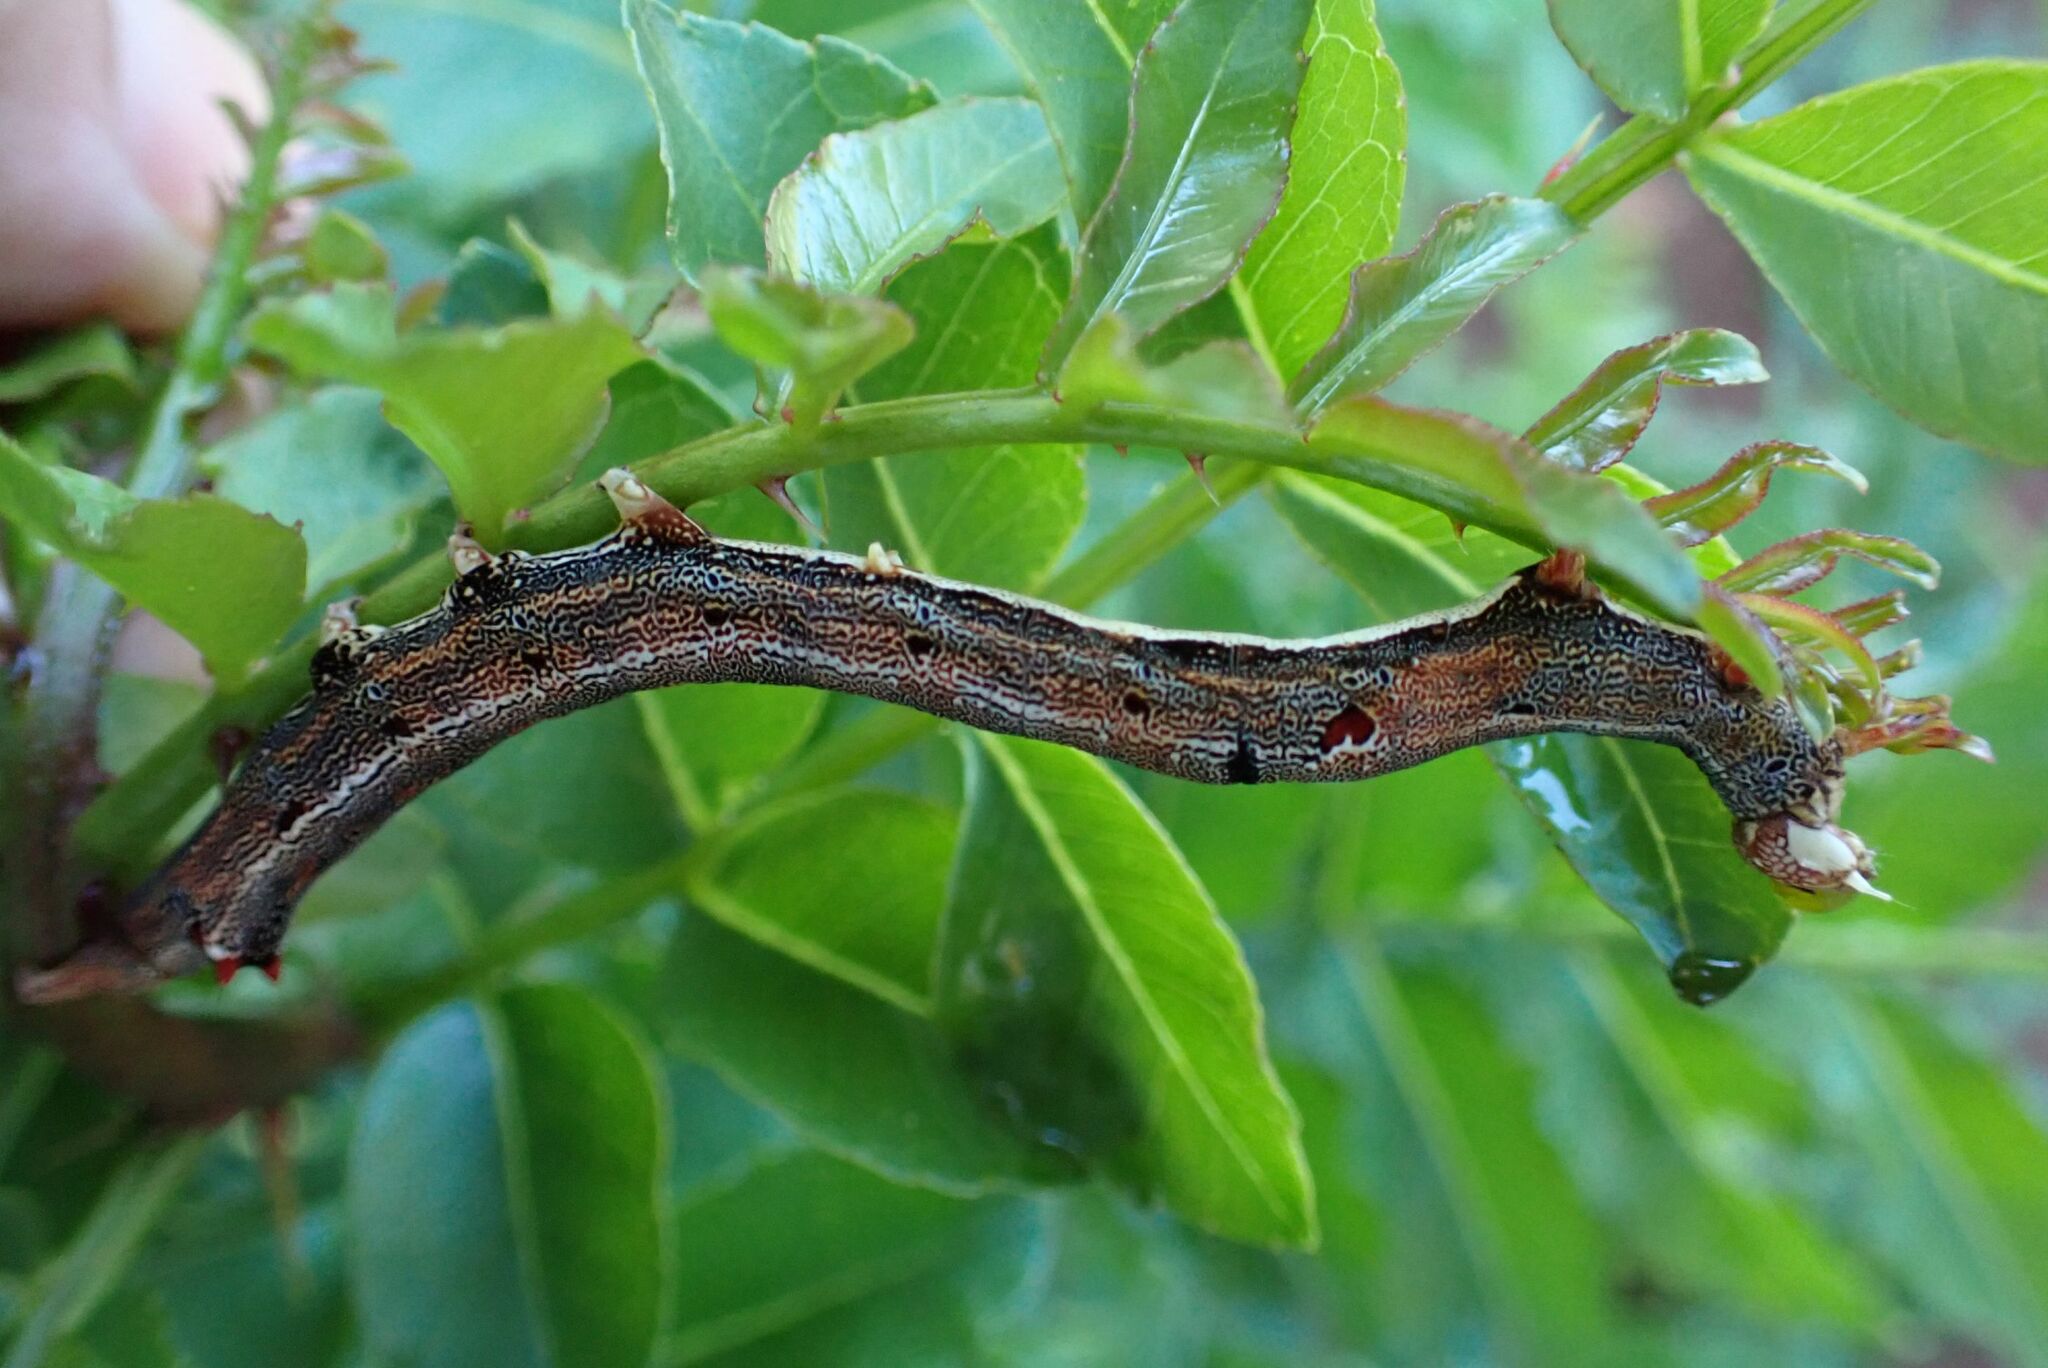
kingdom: Animalia
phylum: Arthropoda
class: Insecta
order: Lepidoptera
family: Erebidae
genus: Achaea
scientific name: Achaea lienardi
